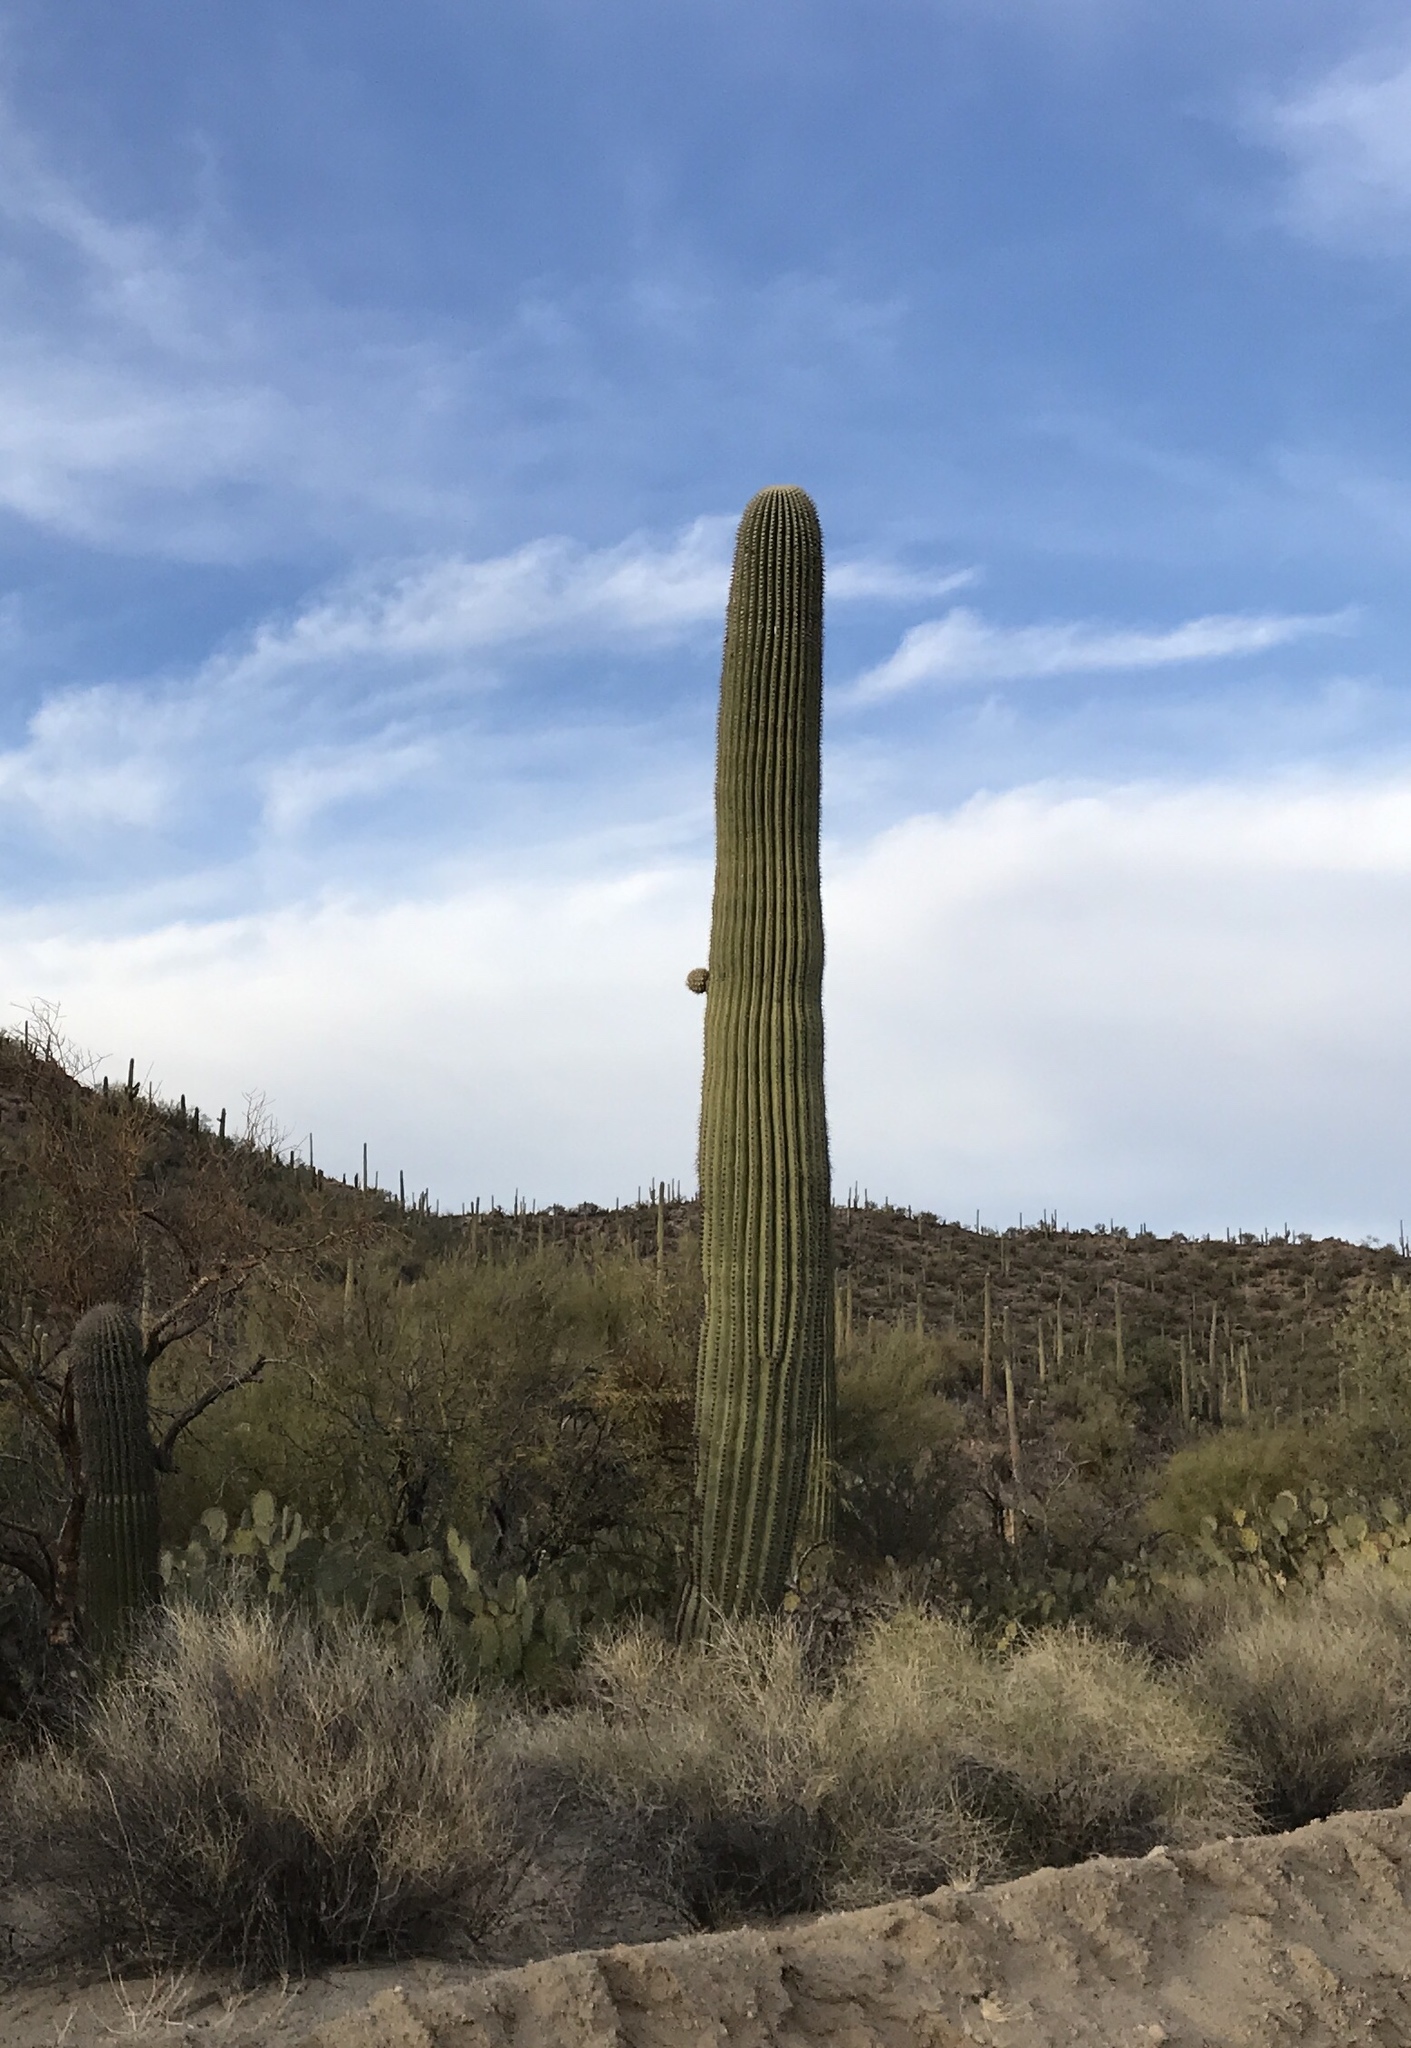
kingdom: Plantae
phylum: Tracheophyta
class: Magnoliopsida
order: Caryophyllales
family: Cactaceae
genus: Carnegiea
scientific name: Carnegiea gigantea
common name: Saguaro
